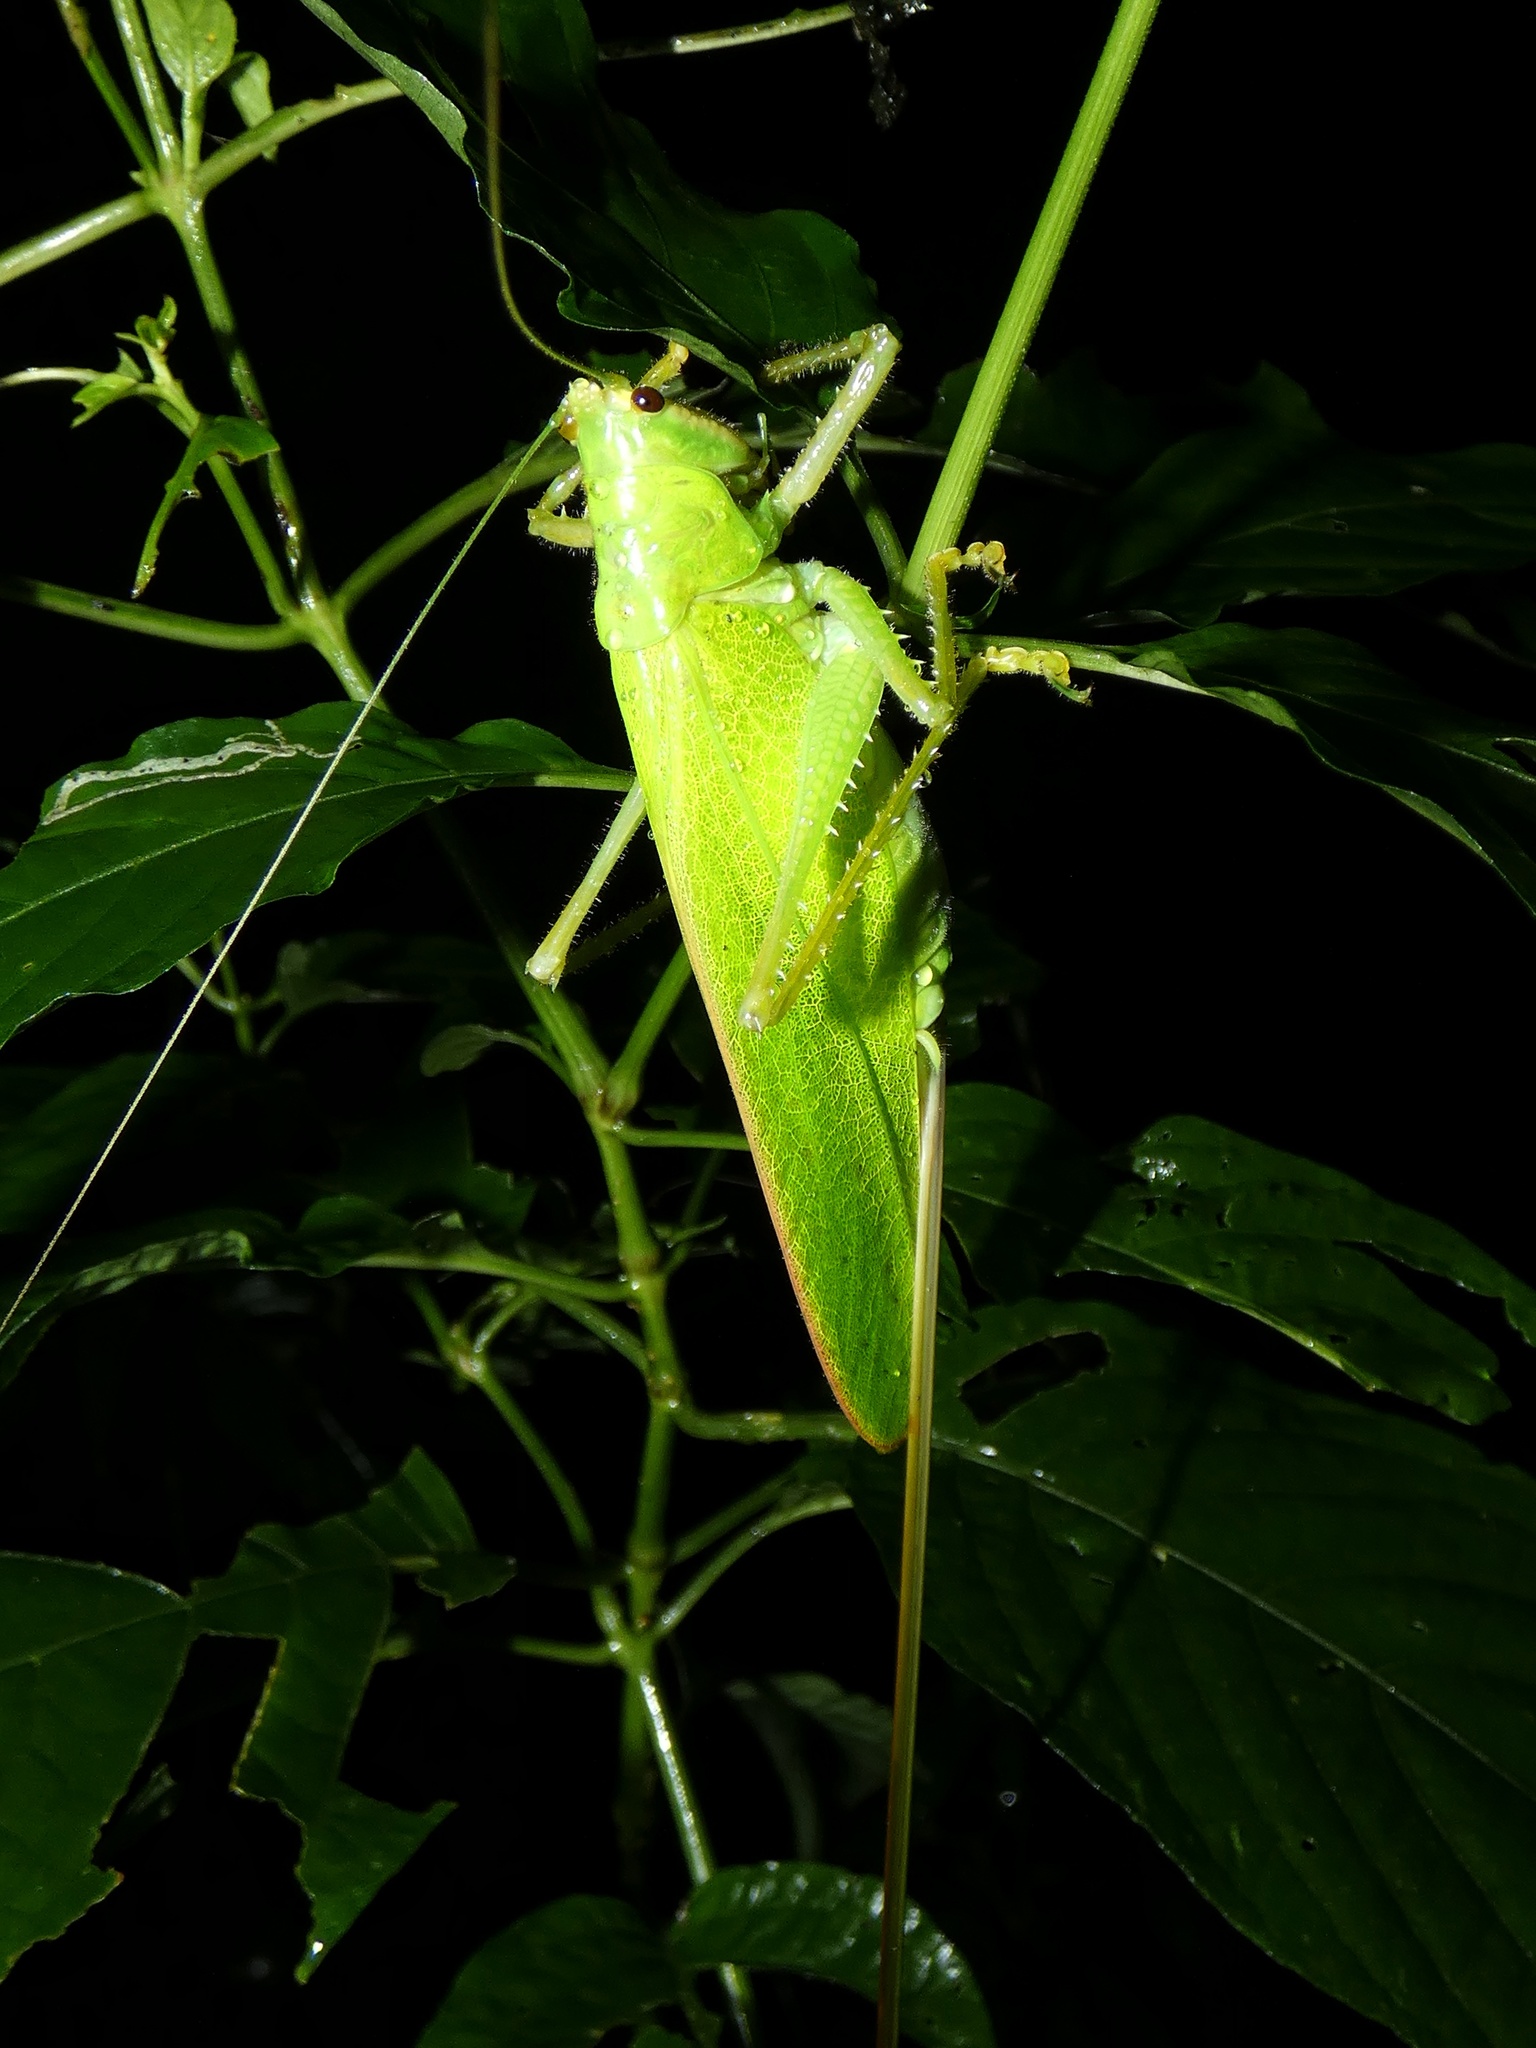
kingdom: Animalia
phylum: Arthropoda
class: Insecta
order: Orthoptera
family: Tettigoniidae
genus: Copiphora
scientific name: Copiphora brevirostris
